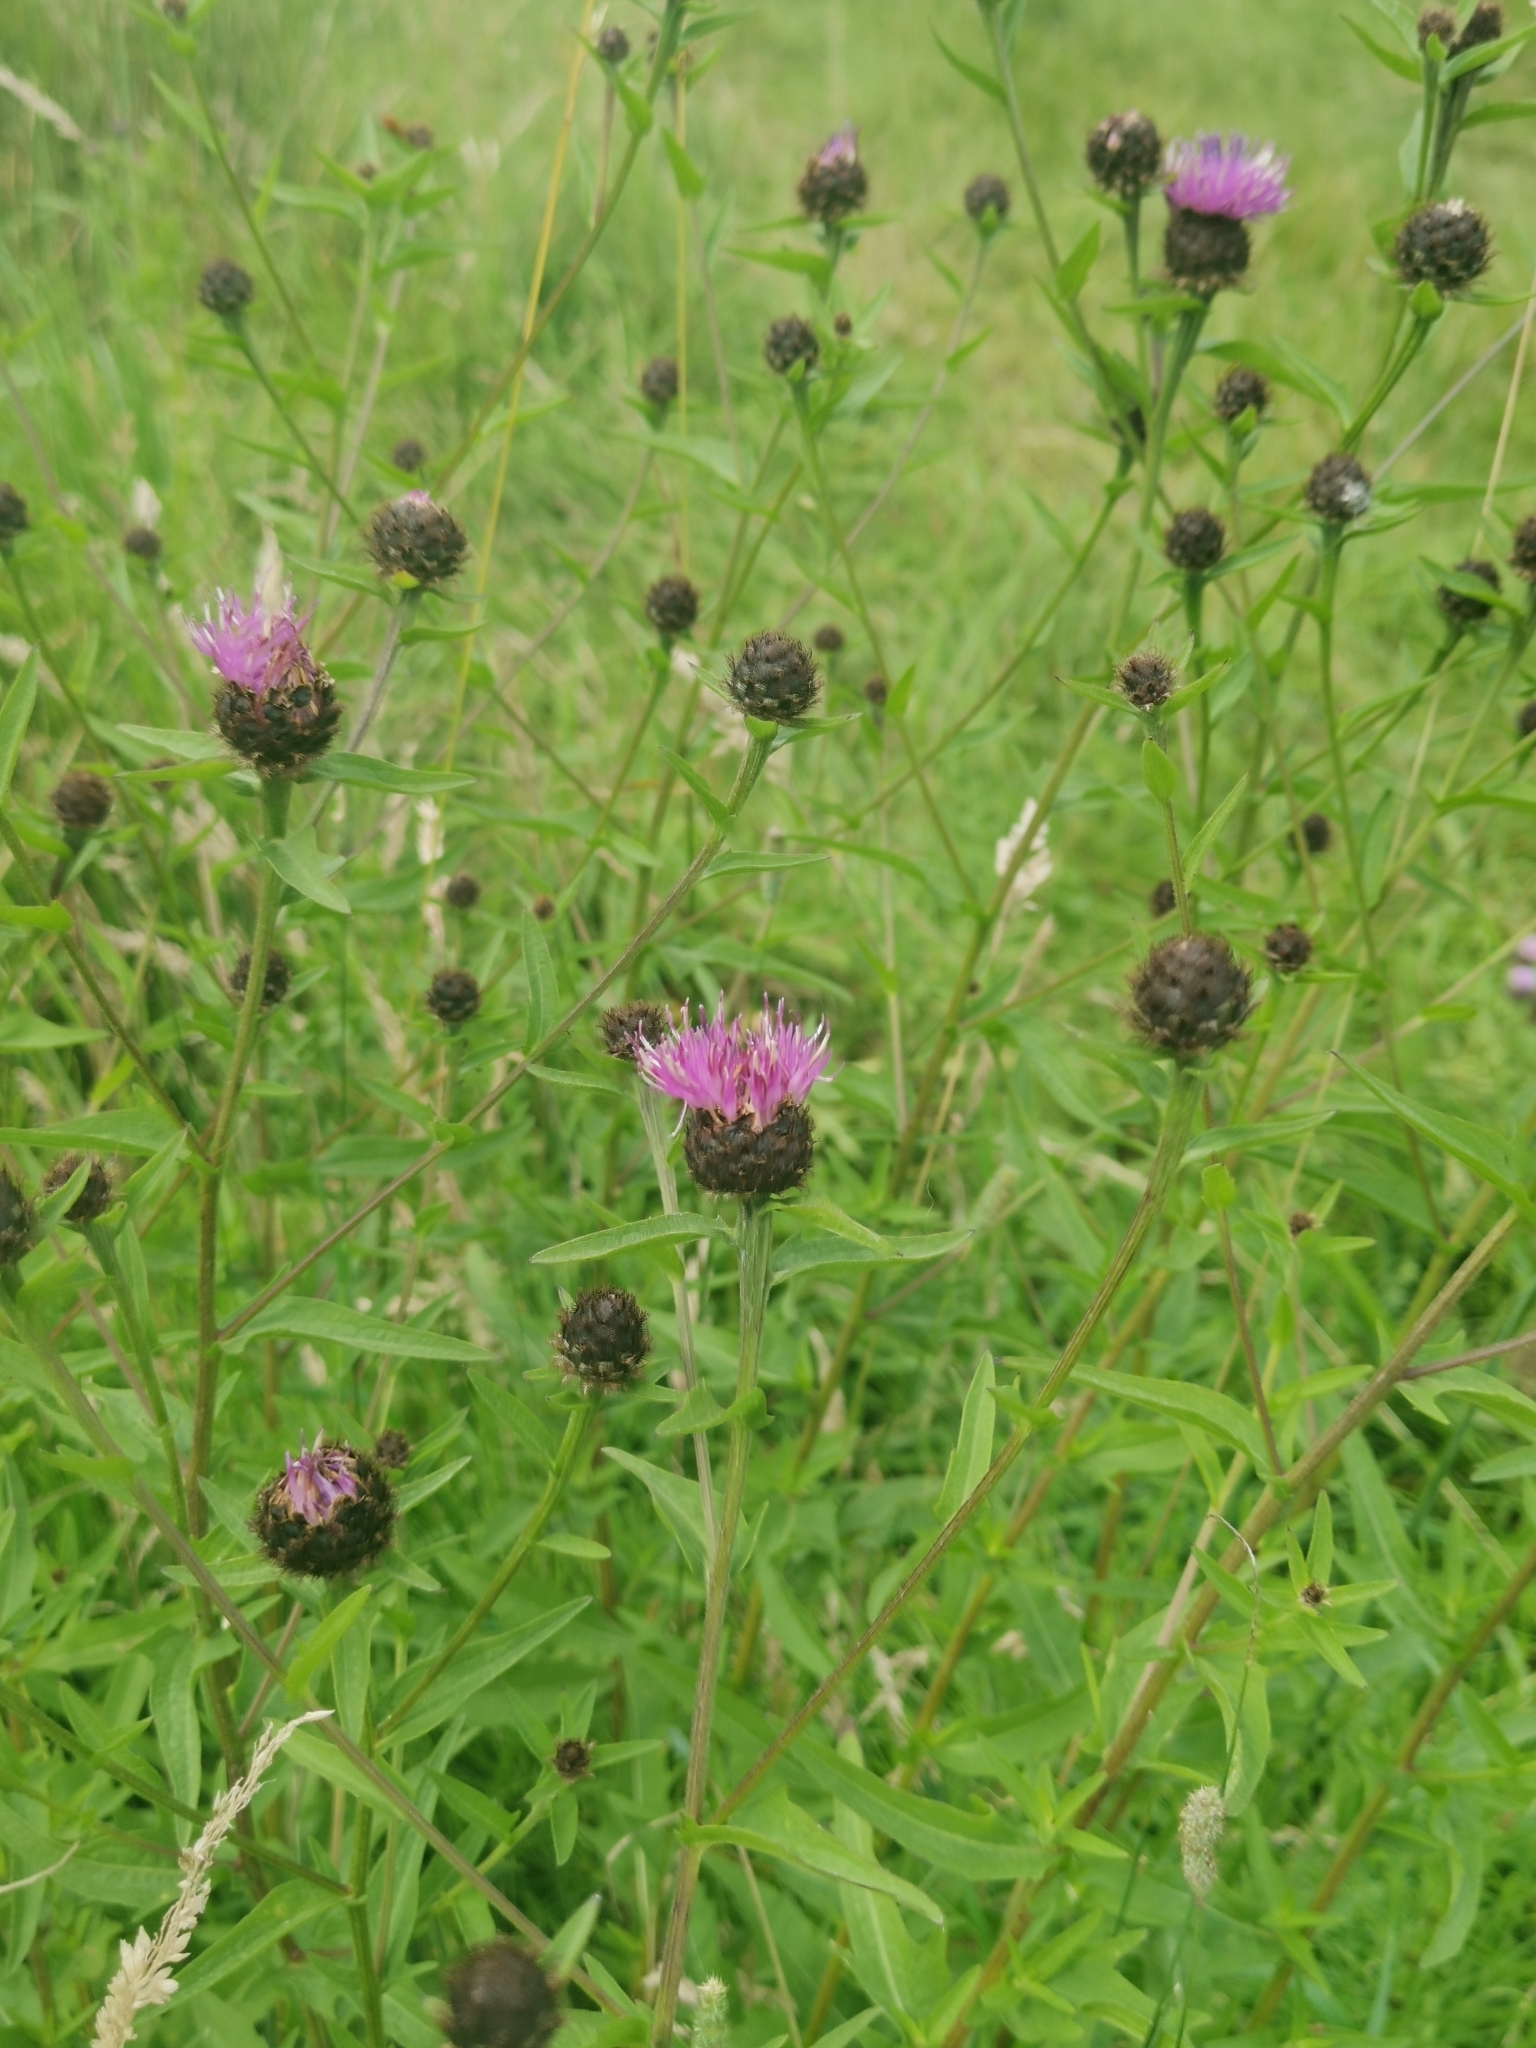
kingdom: Plantae
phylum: Tracheophyta
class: Magnoliopsida
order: Asterales
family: Asteraceae
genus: Centaurea
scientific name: Centaurea nigra
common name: Lesser knapweed
